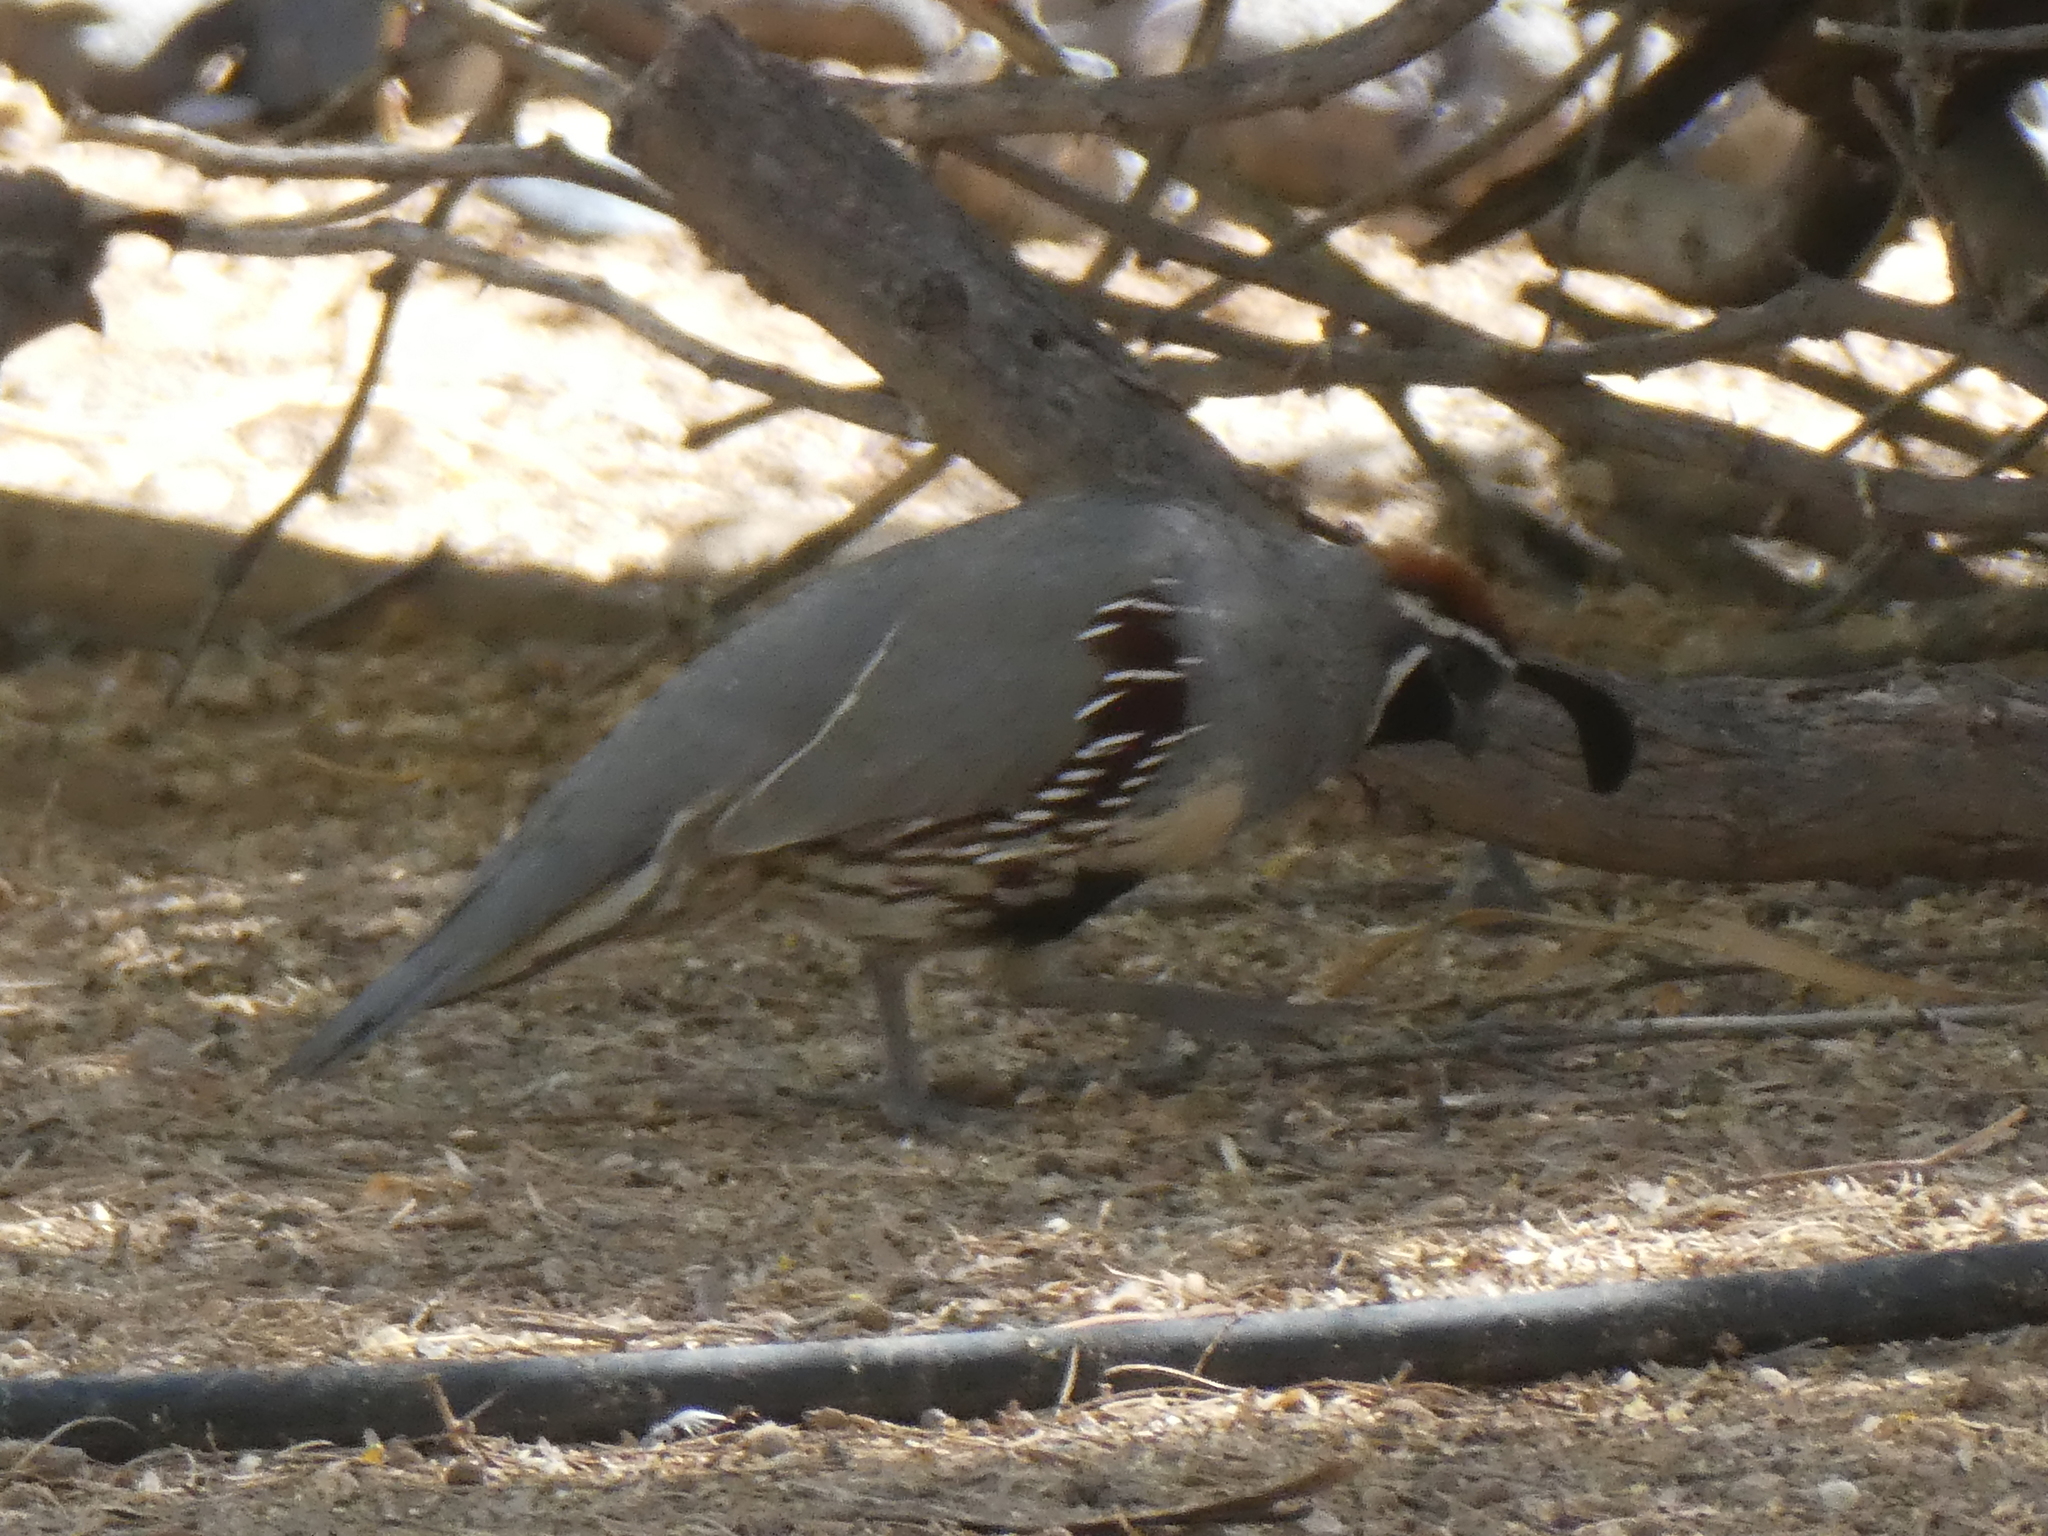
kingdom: Animalia
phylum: Chordata
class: Aves
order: Galliformes
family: Odontophoridae
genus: Callipepla
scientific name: Callipepla gambelii
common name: Gambel's quail
